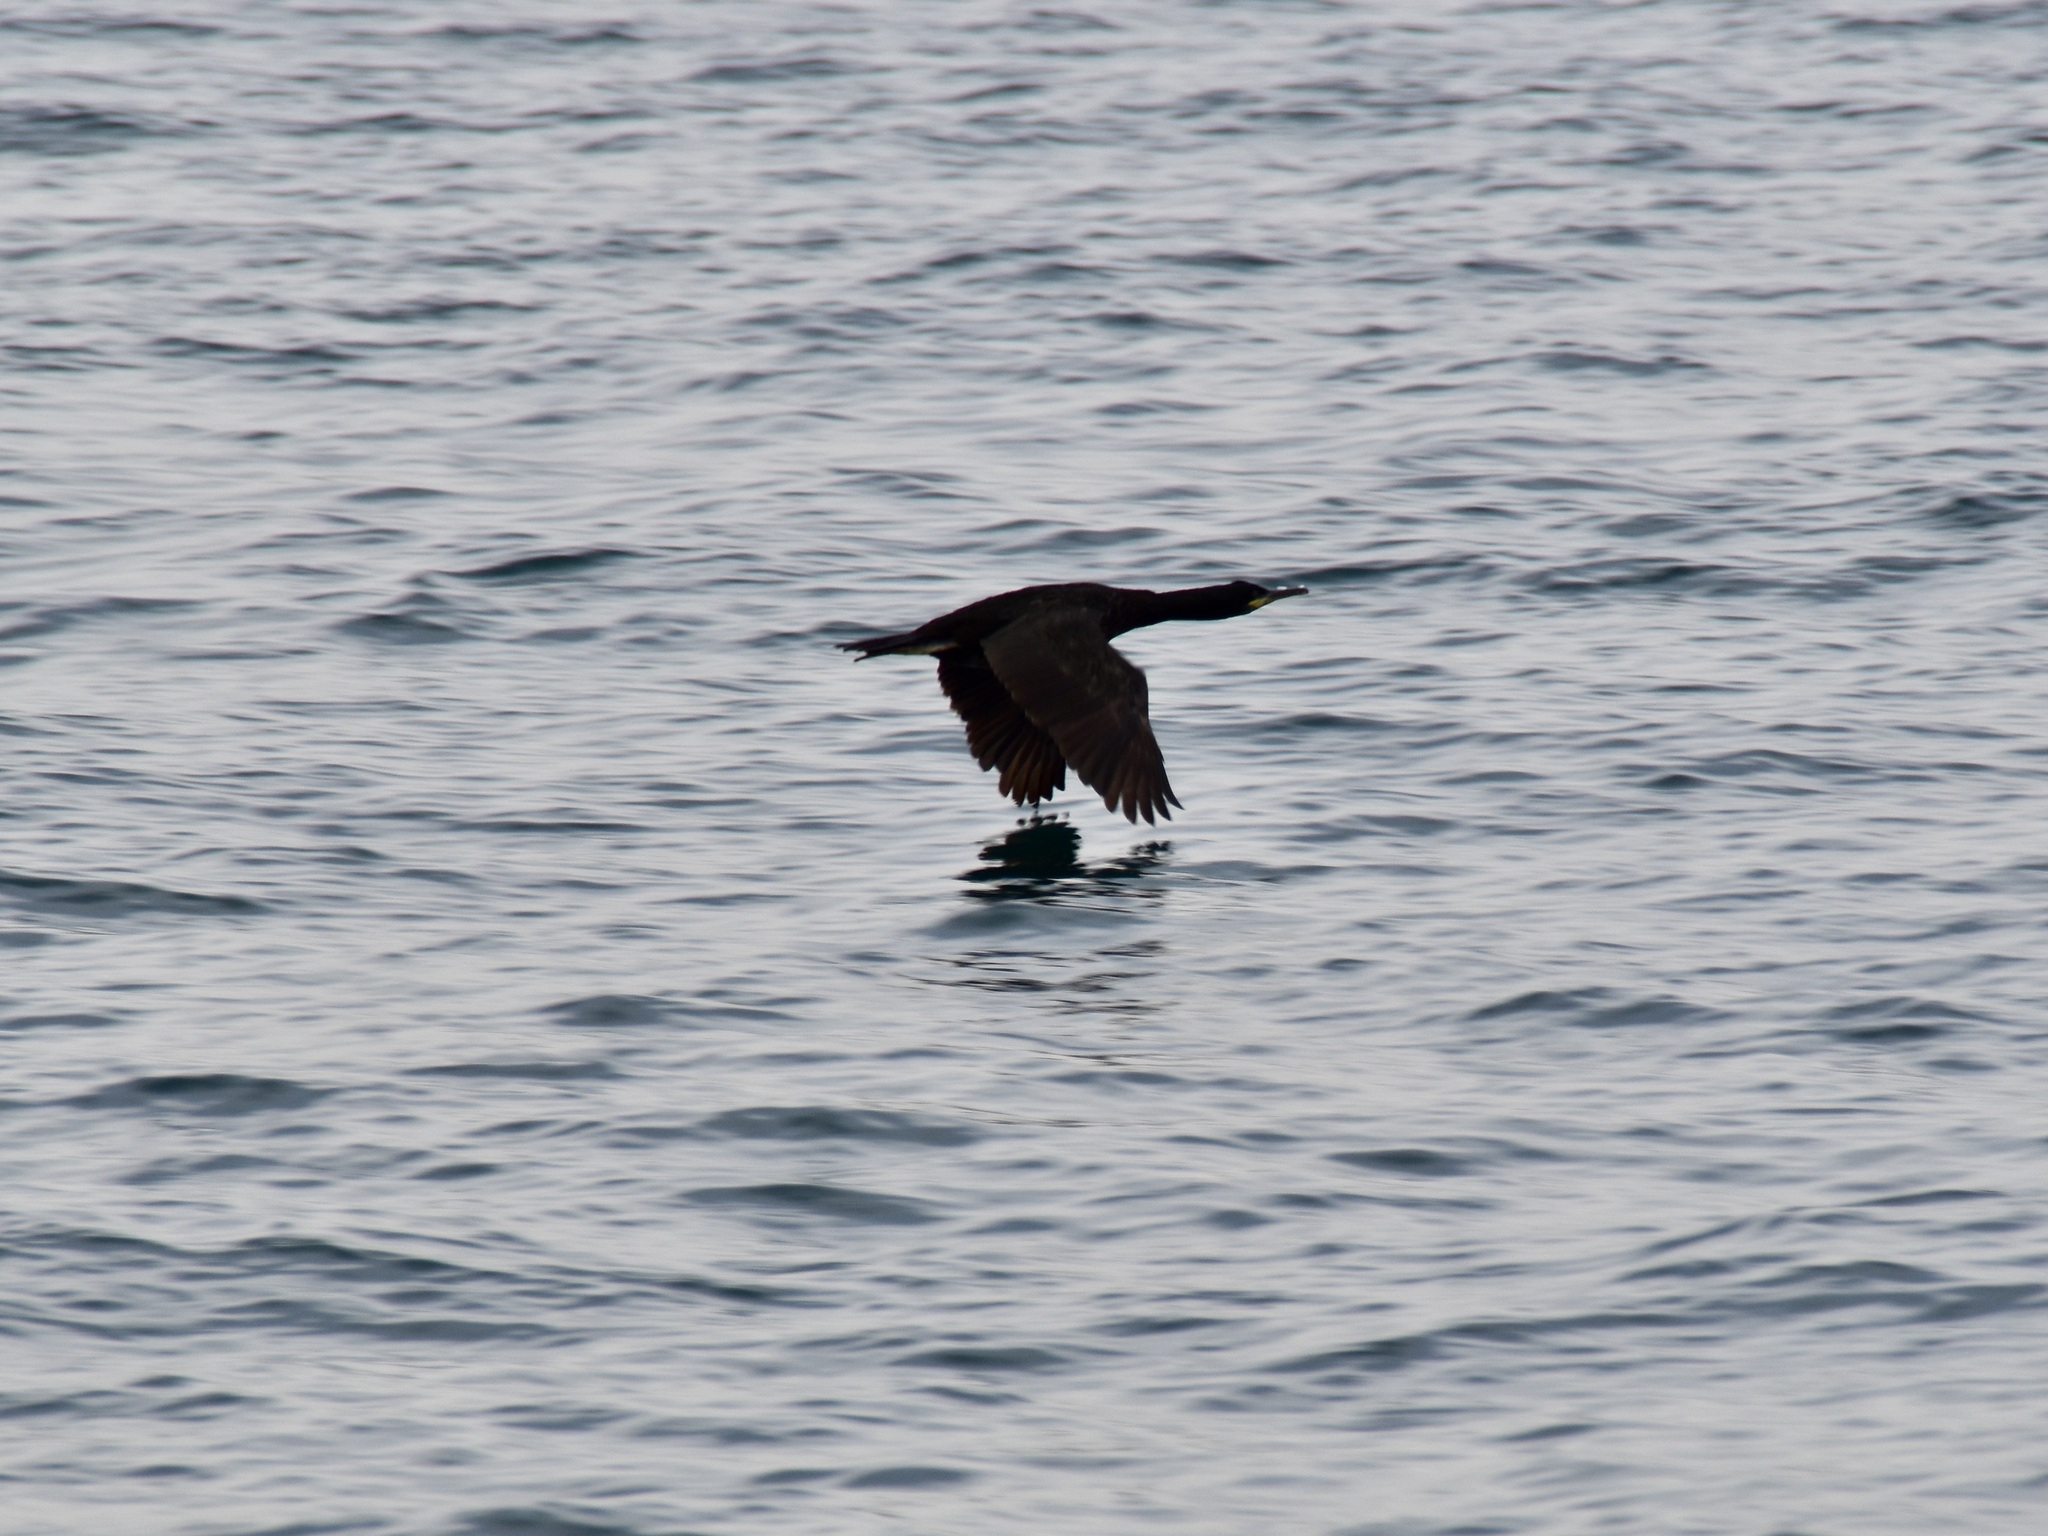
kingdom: Animalia
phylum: Chordata
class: Aves
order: Suliformes
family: Phalacrocoracidae
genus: Phalacrocorax
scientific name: Phalacrocorax aristotelis
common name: European shag
